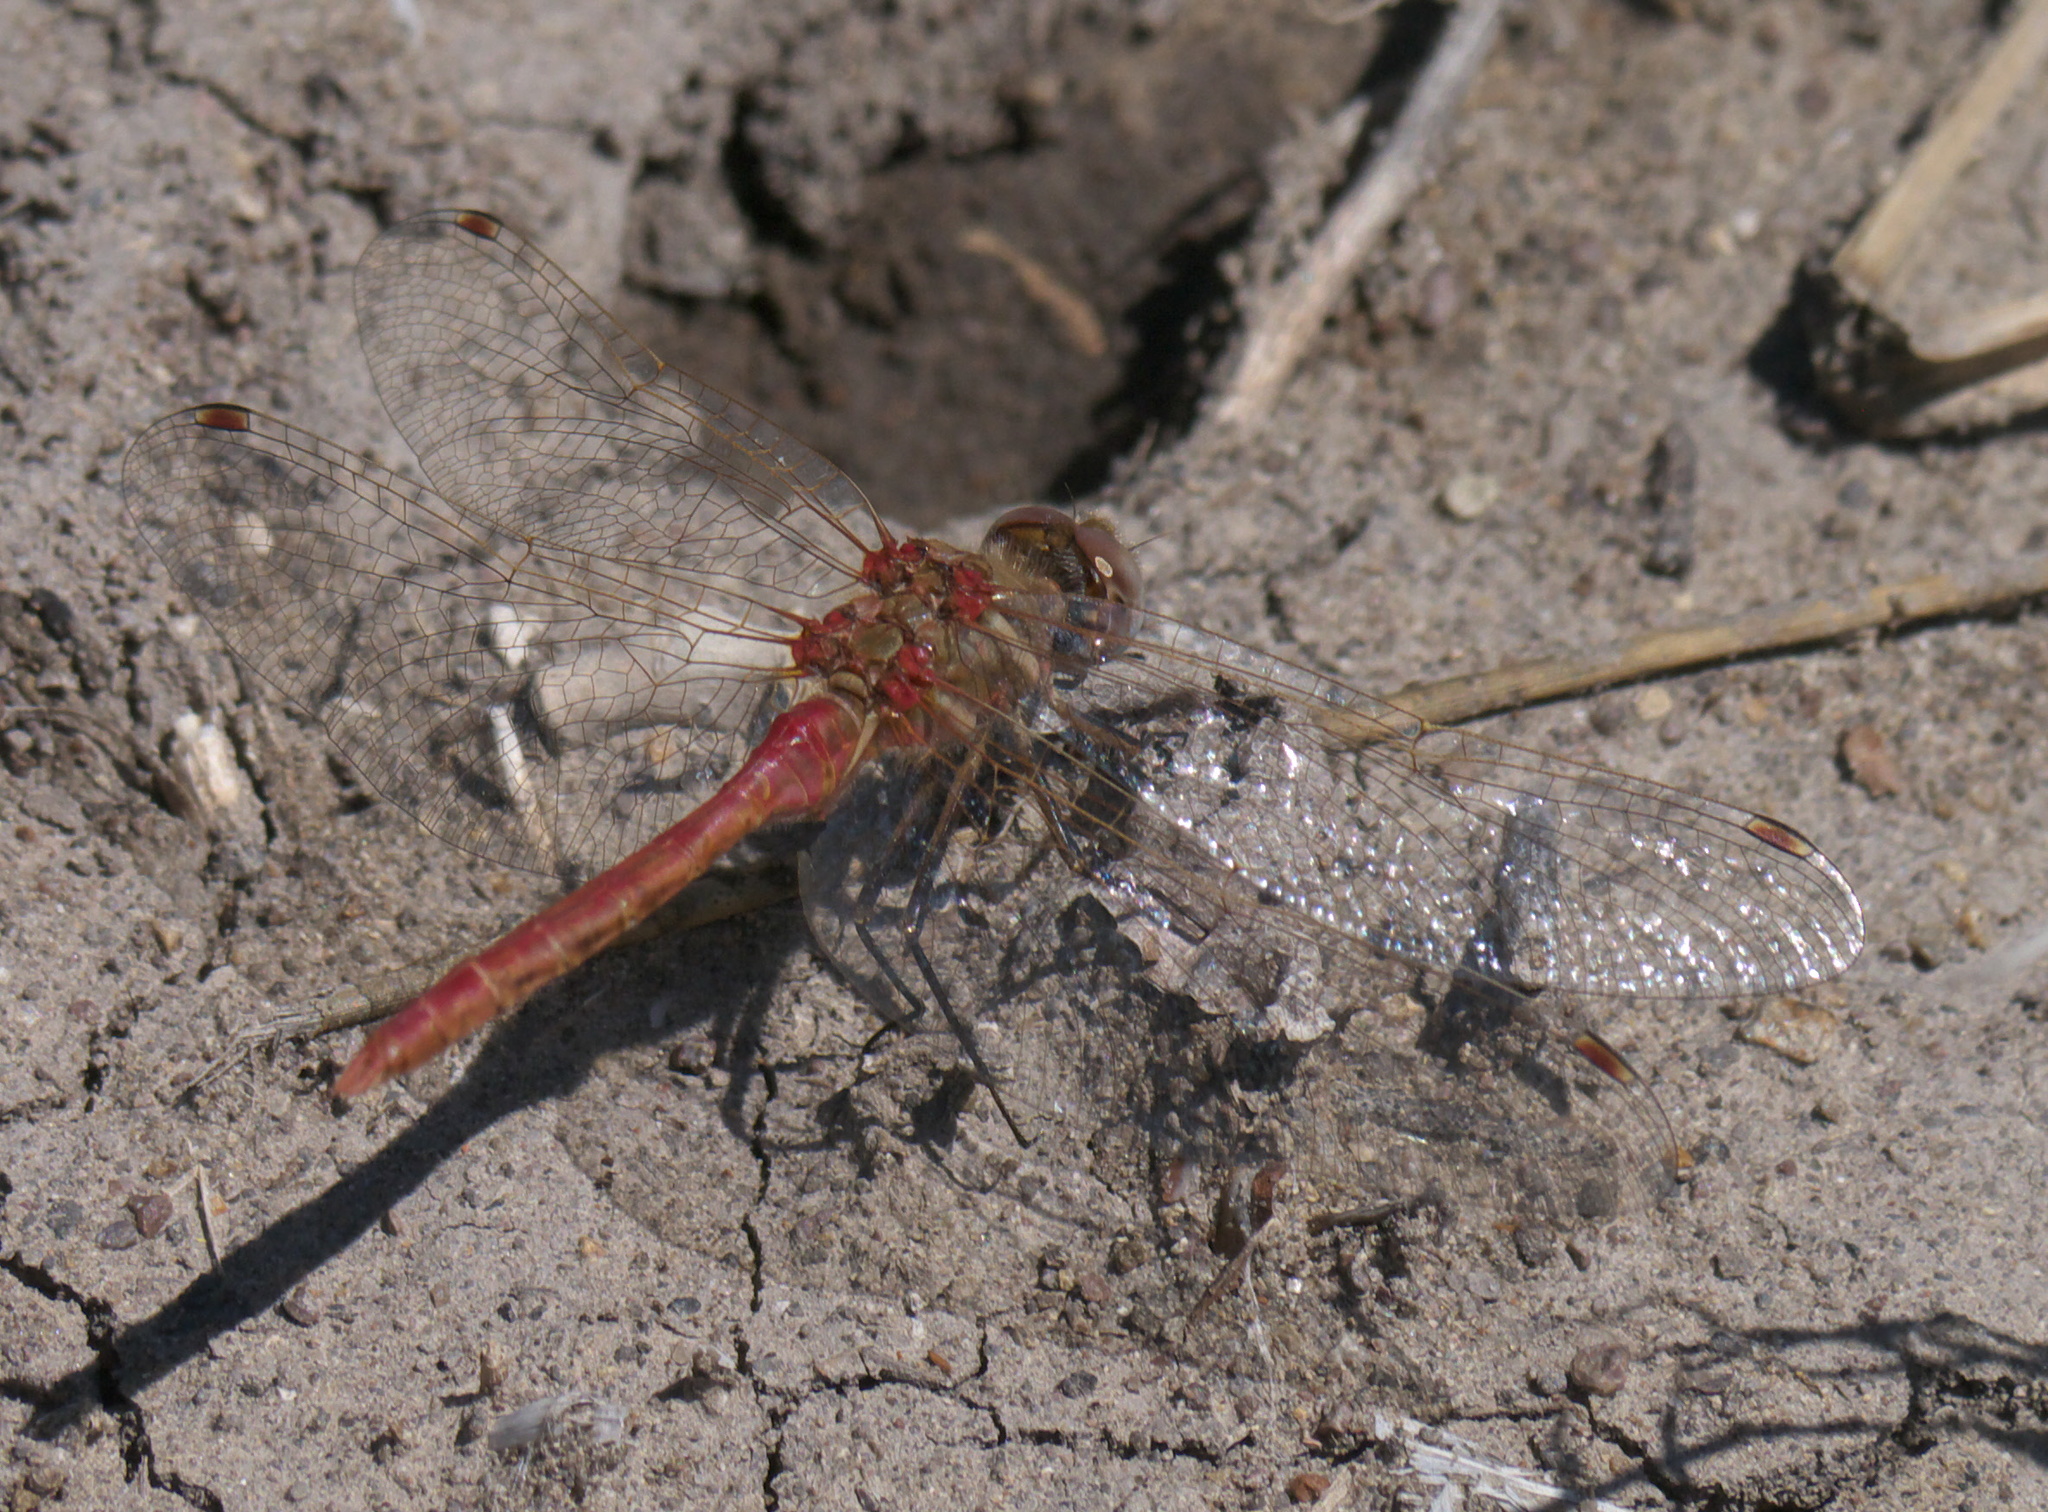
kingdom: Animalia
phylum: Arthropoda
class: Insecta
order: Odonata
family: Libellulidae
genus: Sympetrum
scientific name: Sympetrum pallipes
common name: Striped meadowhawk
